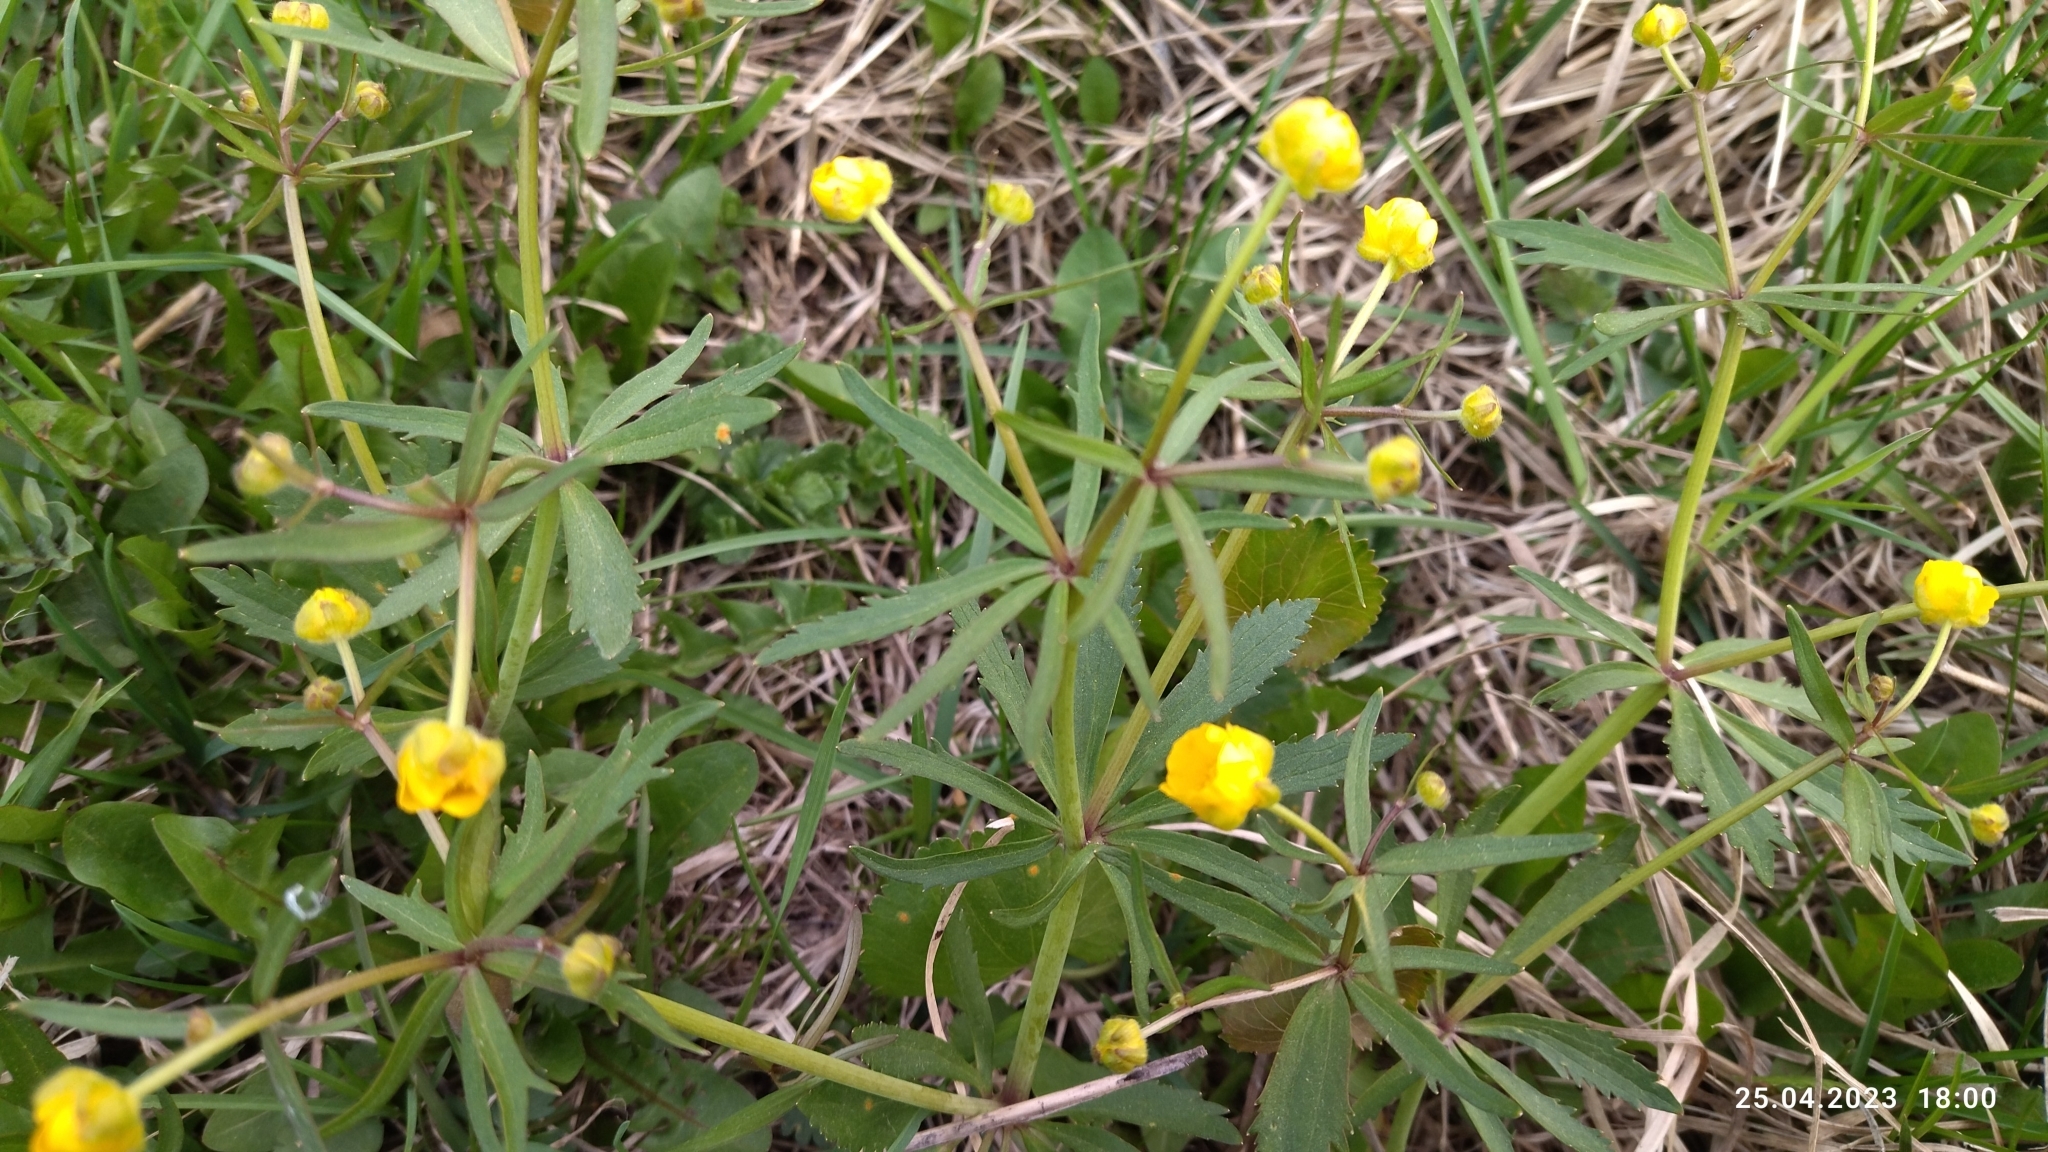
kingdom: Plantae
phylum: Tracheophyta
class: Magnoliopsida
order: Ranunculales
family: Ranunculaceae
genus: Ranunculus
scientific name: Ranunculus auricomus
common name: Goldilocks buttercup
